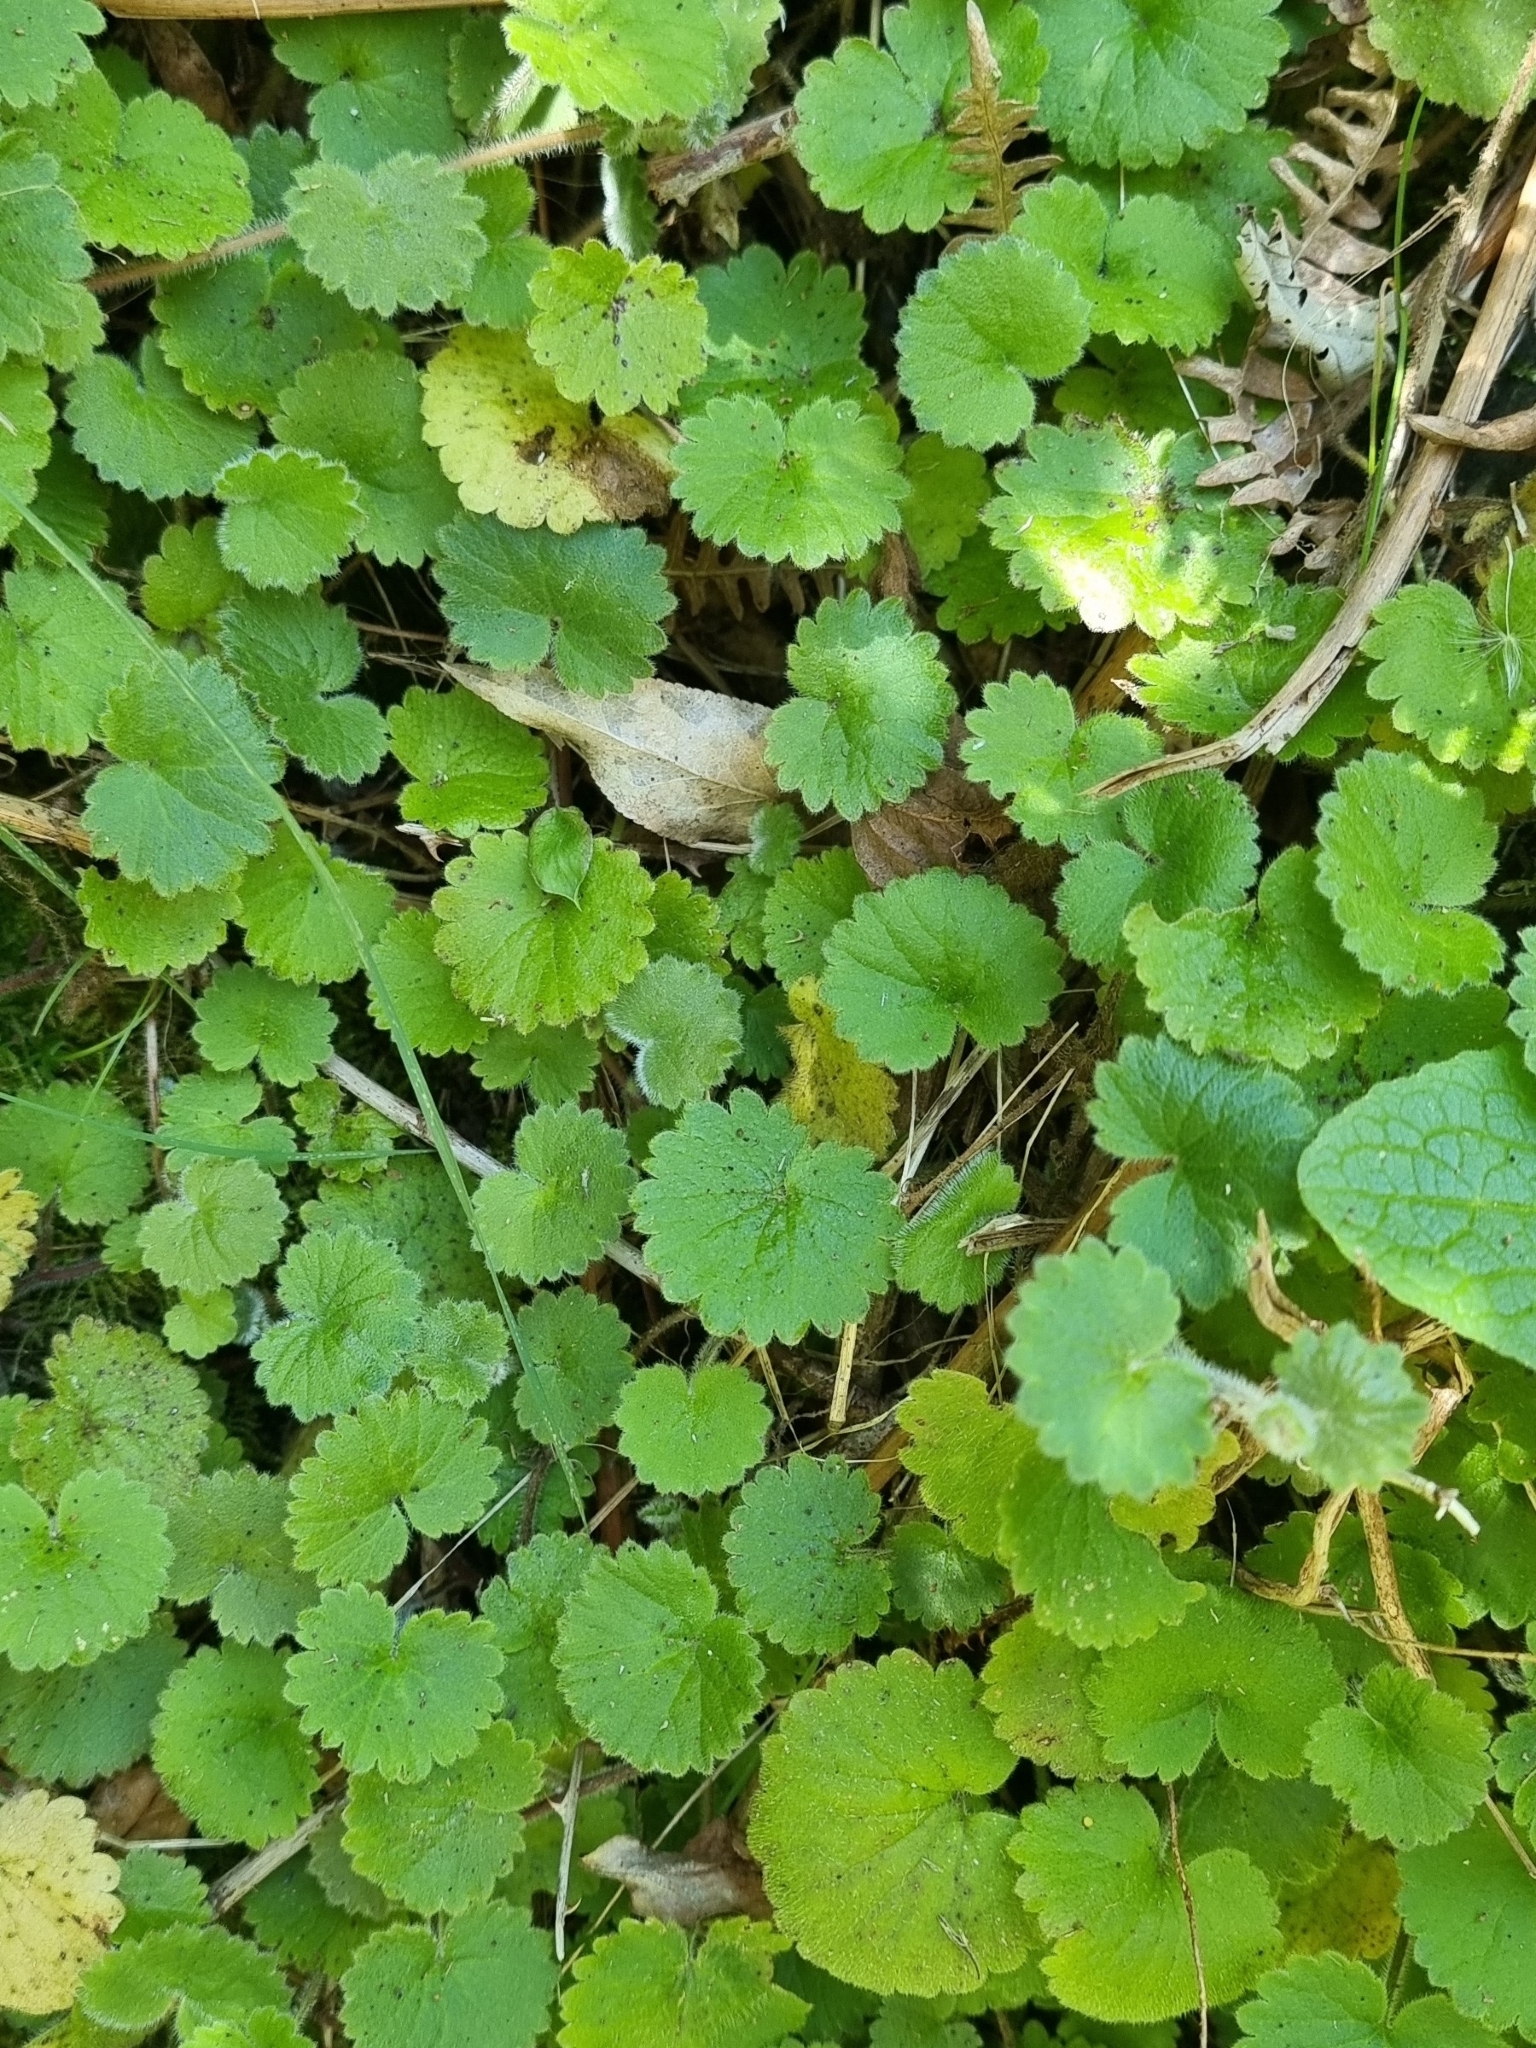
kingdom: Plantae
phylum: Tracheophyta
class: Magnoliopsida
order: Lamiales
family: Plantaginaceae
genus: Sibthorpia
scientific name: Sibthorpia peregrina
